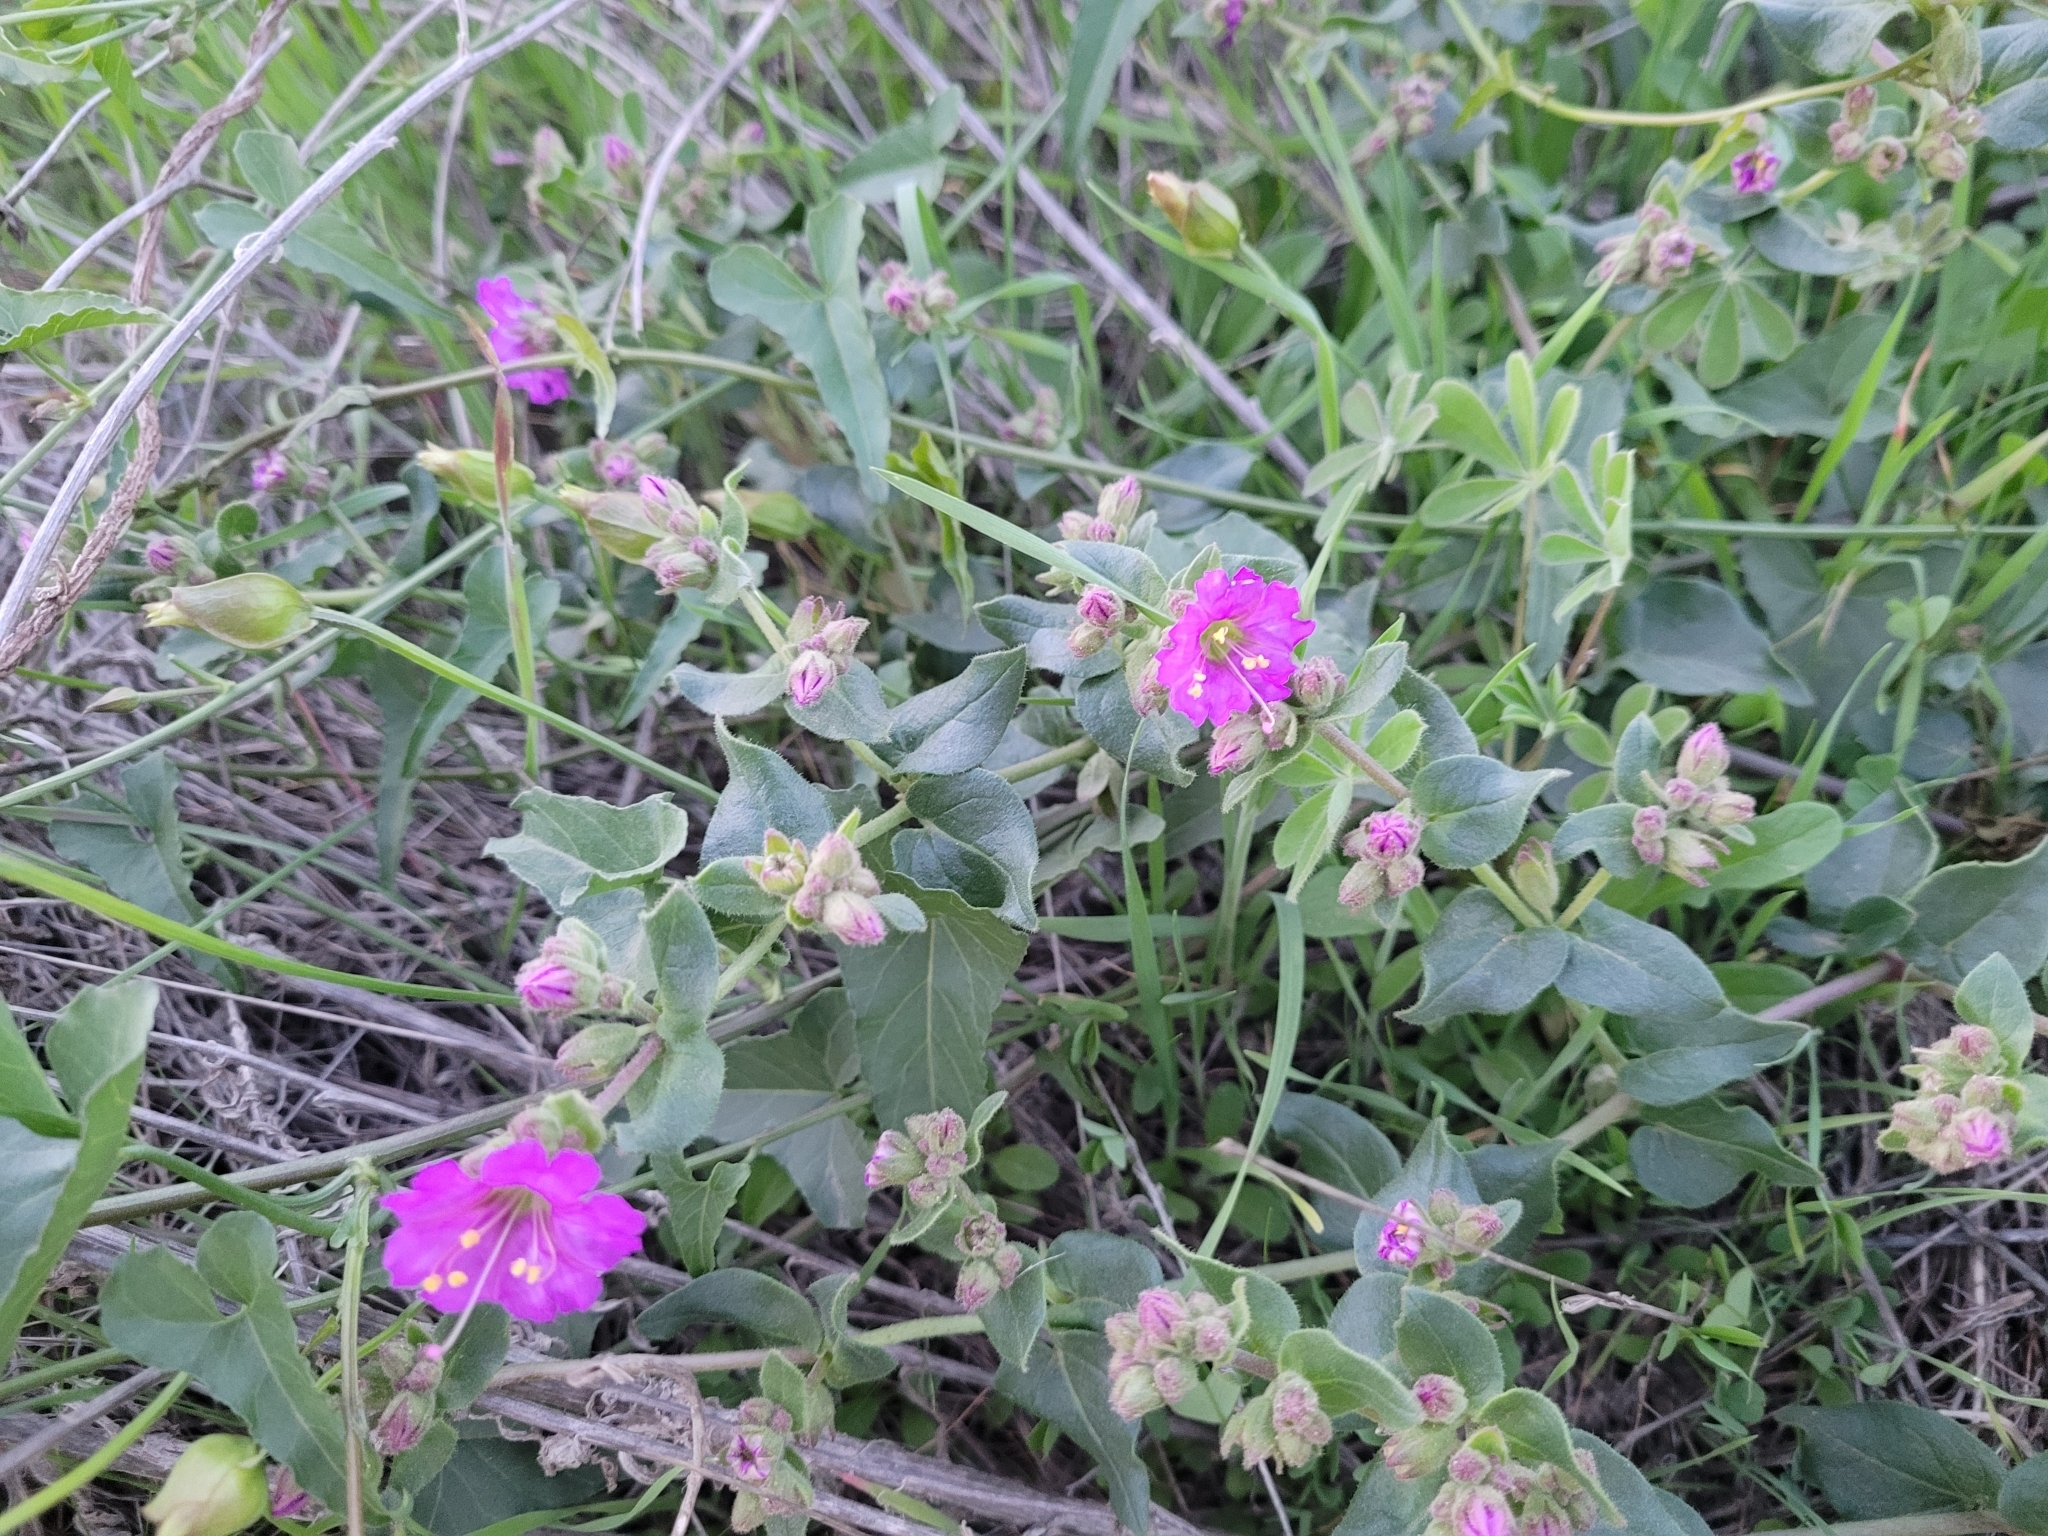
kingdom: Plantae
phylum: Tracheophyta
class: Magnoliopsida
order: Caryophyllales
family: Nyctaginaceae
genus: Mirabilis
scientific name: Mirabilis laevis
